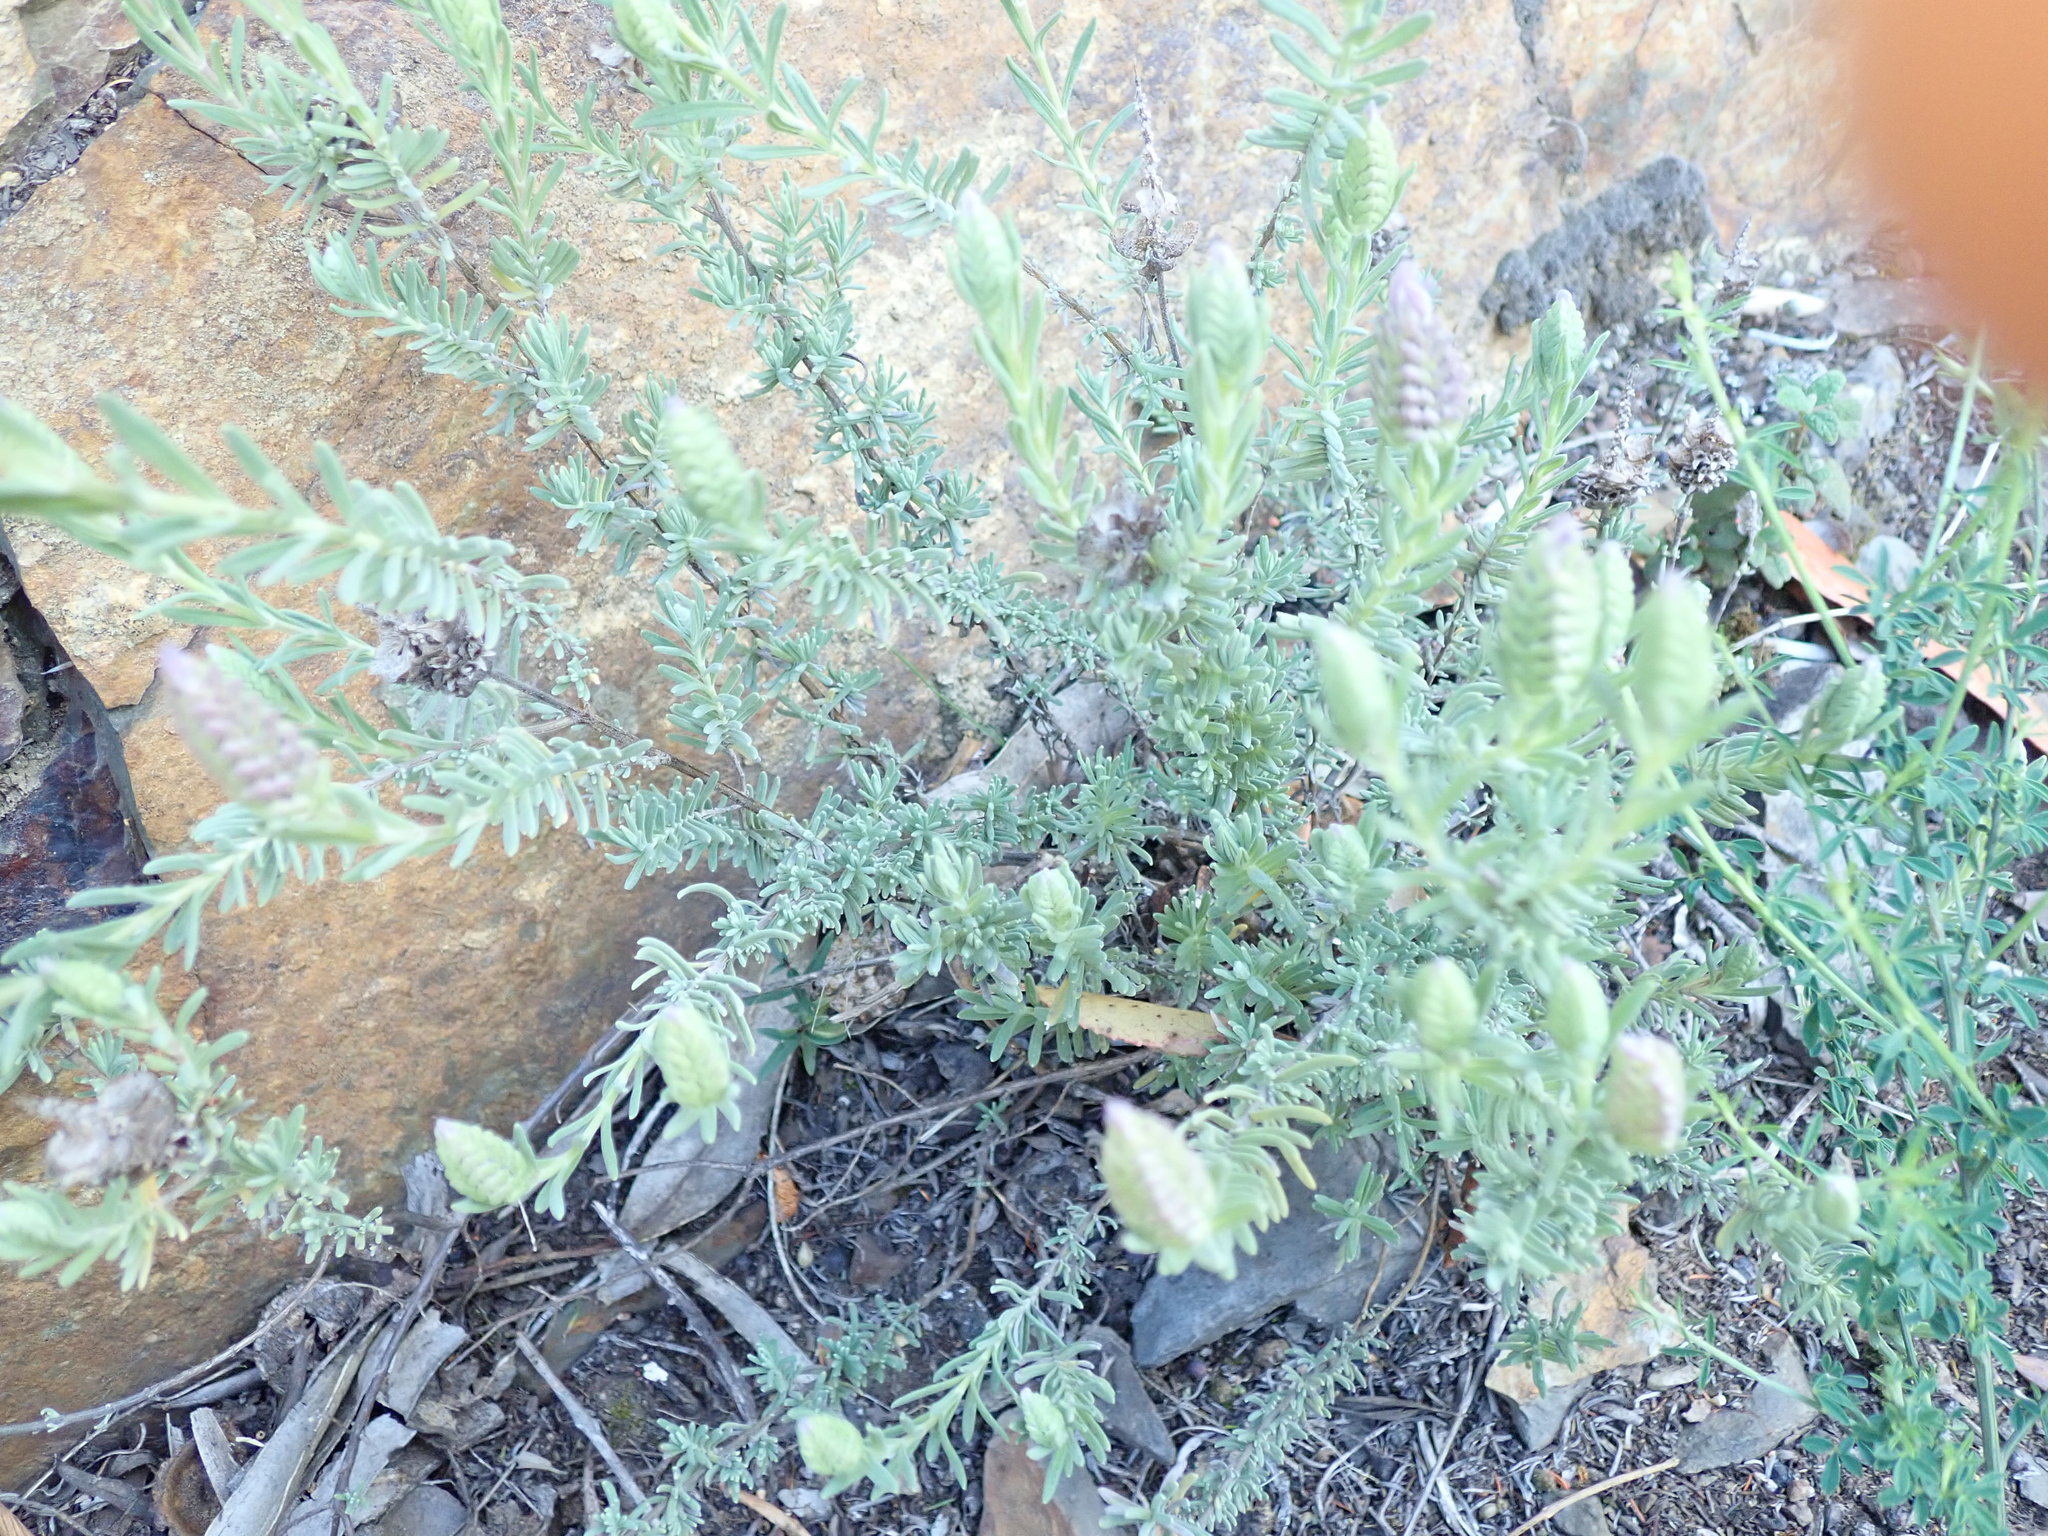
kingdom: Plantae
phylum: Tracheophyta
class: Magnoliopsida
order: Lamiales
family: Lamiaceae
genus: Lavandula
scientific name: Lavandula stoechas
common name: French lavender
